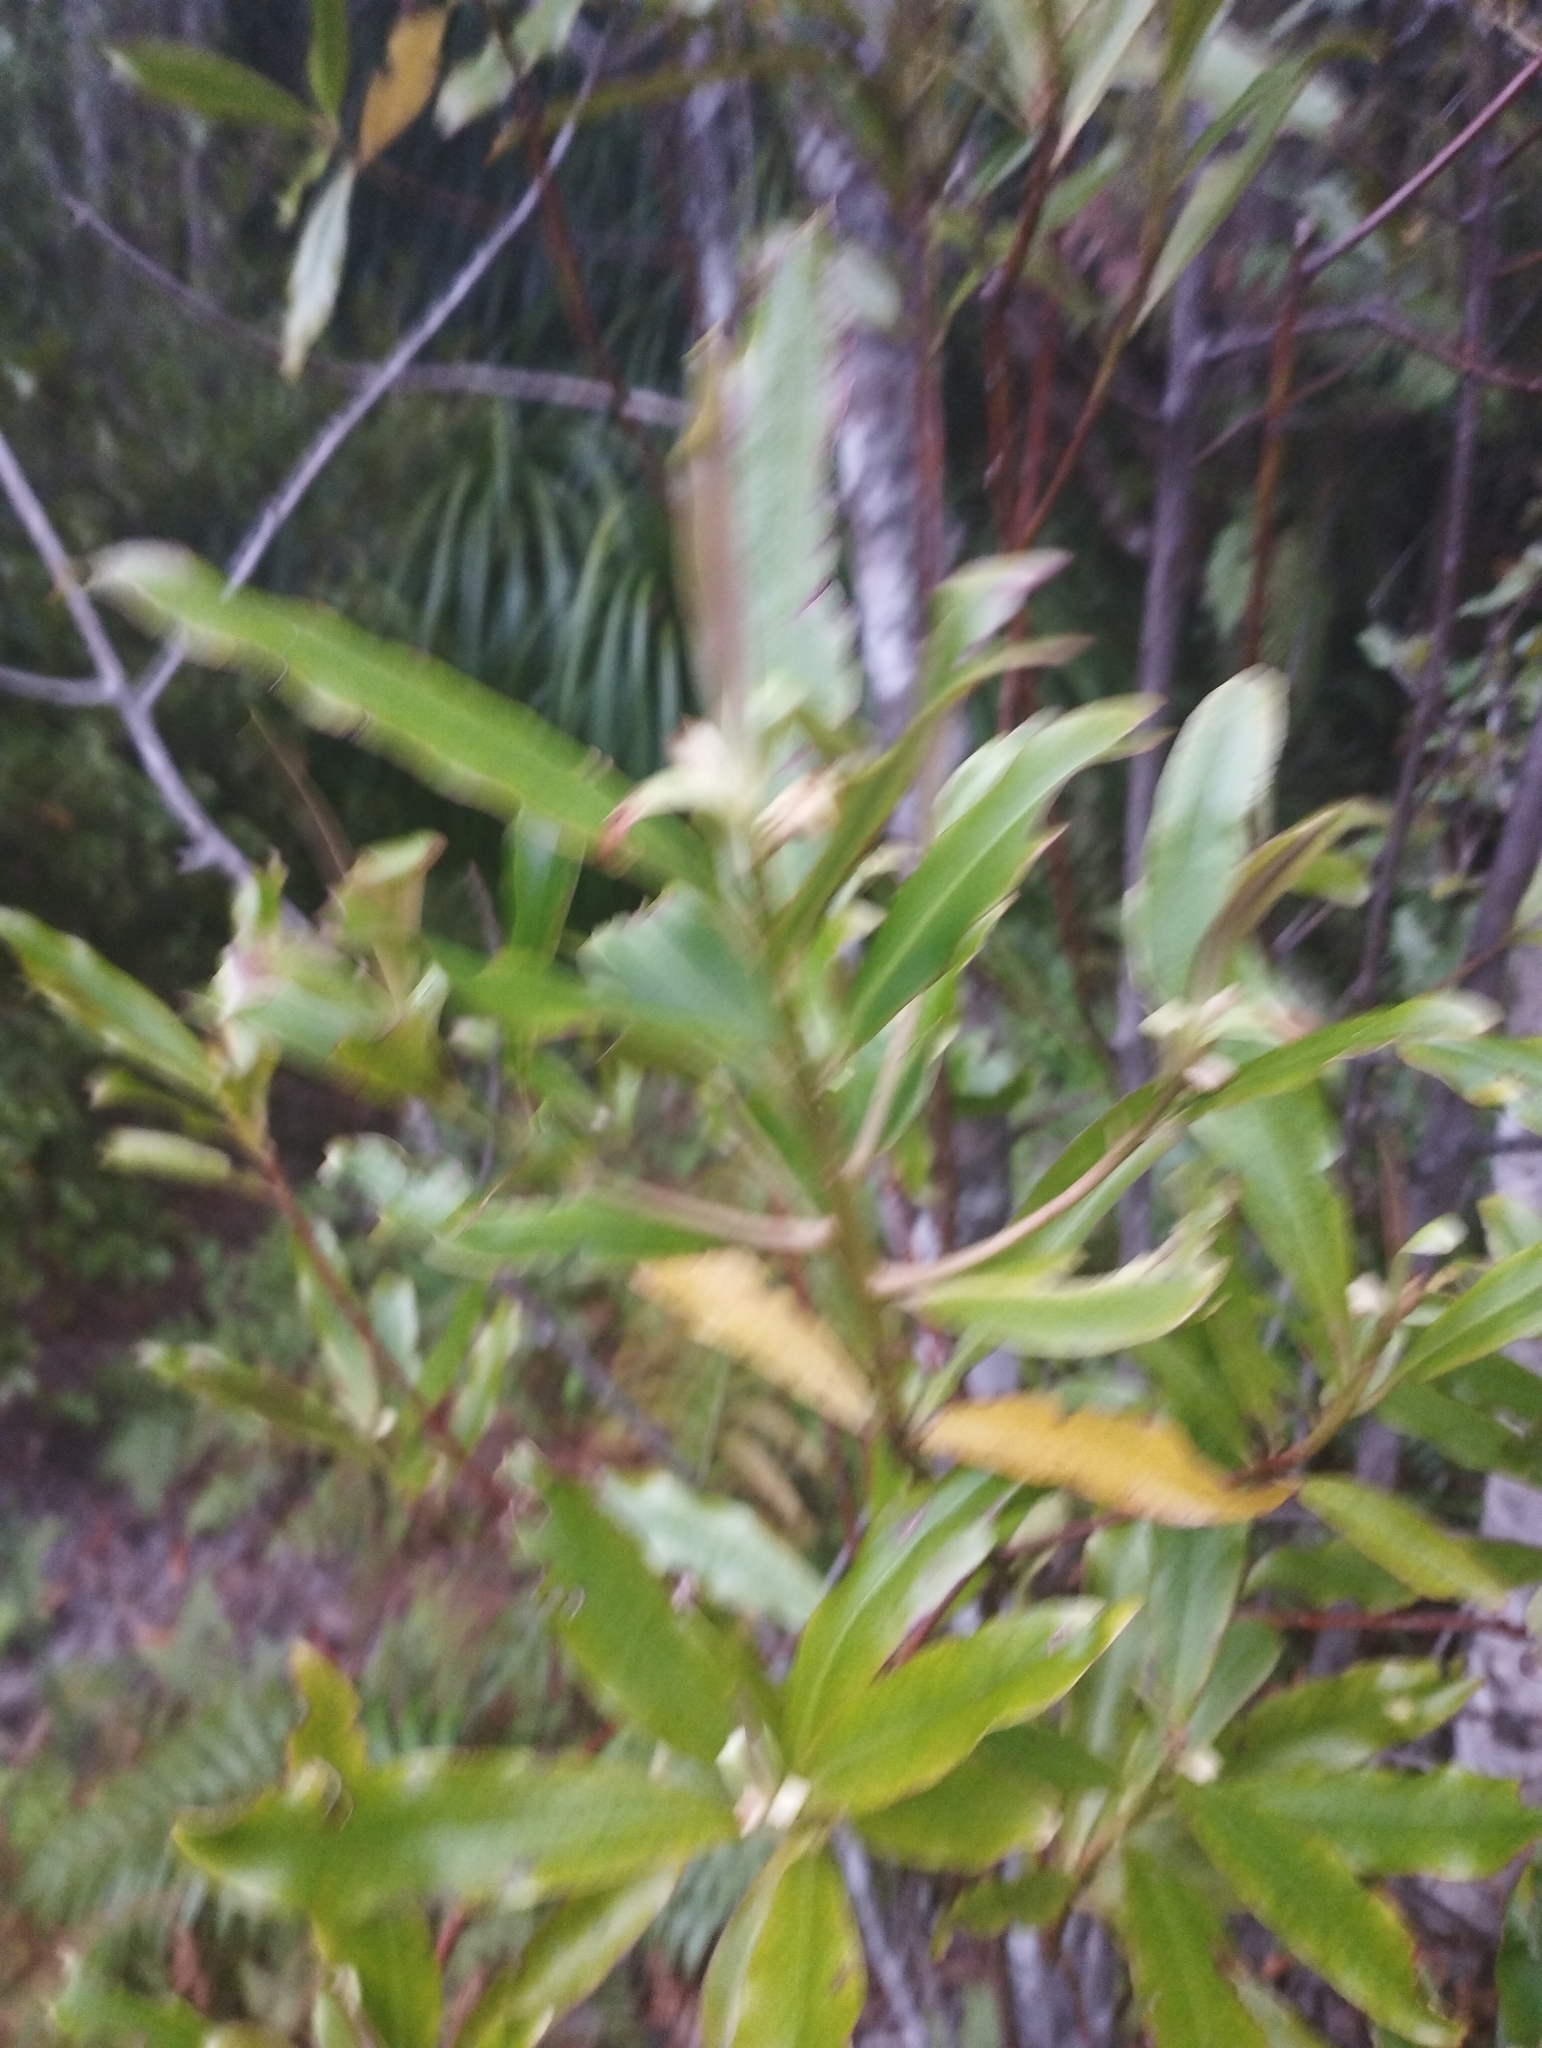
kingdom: Plantae
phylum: Tracheophyta
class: Magnoliopsida
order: Ericales
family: Primulaceae
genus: Myrsine
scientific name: Myrsine salicina
